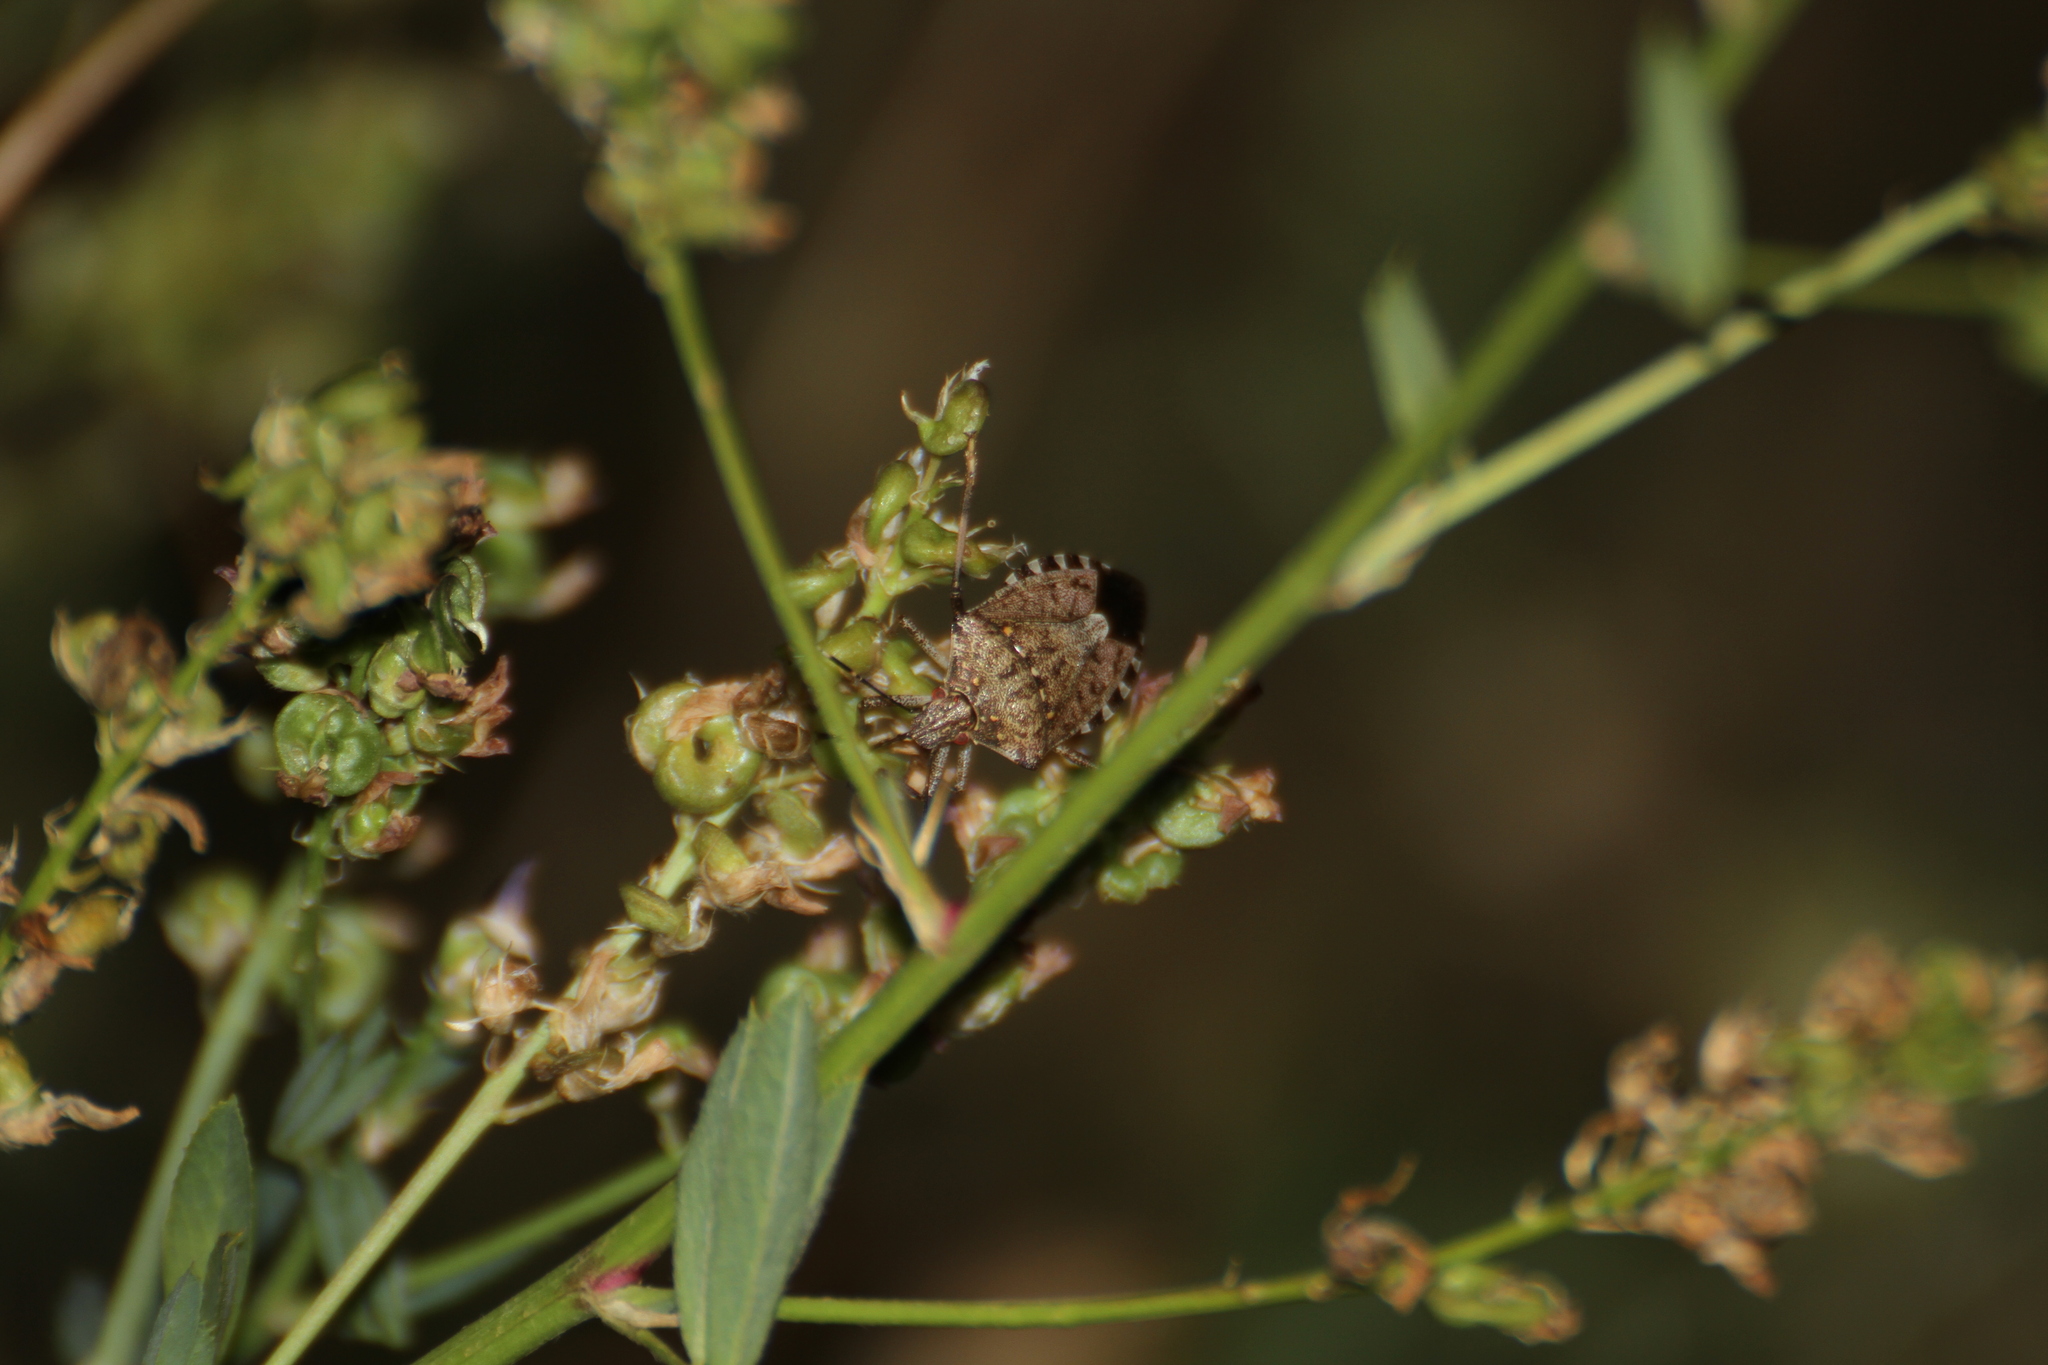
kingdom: Animalia
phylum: Arthropoda
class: Insecta
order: Hemiptera
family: Pentatomidae
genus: Halyomorpha
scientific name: Halyomorpha halys
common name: Brown marmorated stink bug
